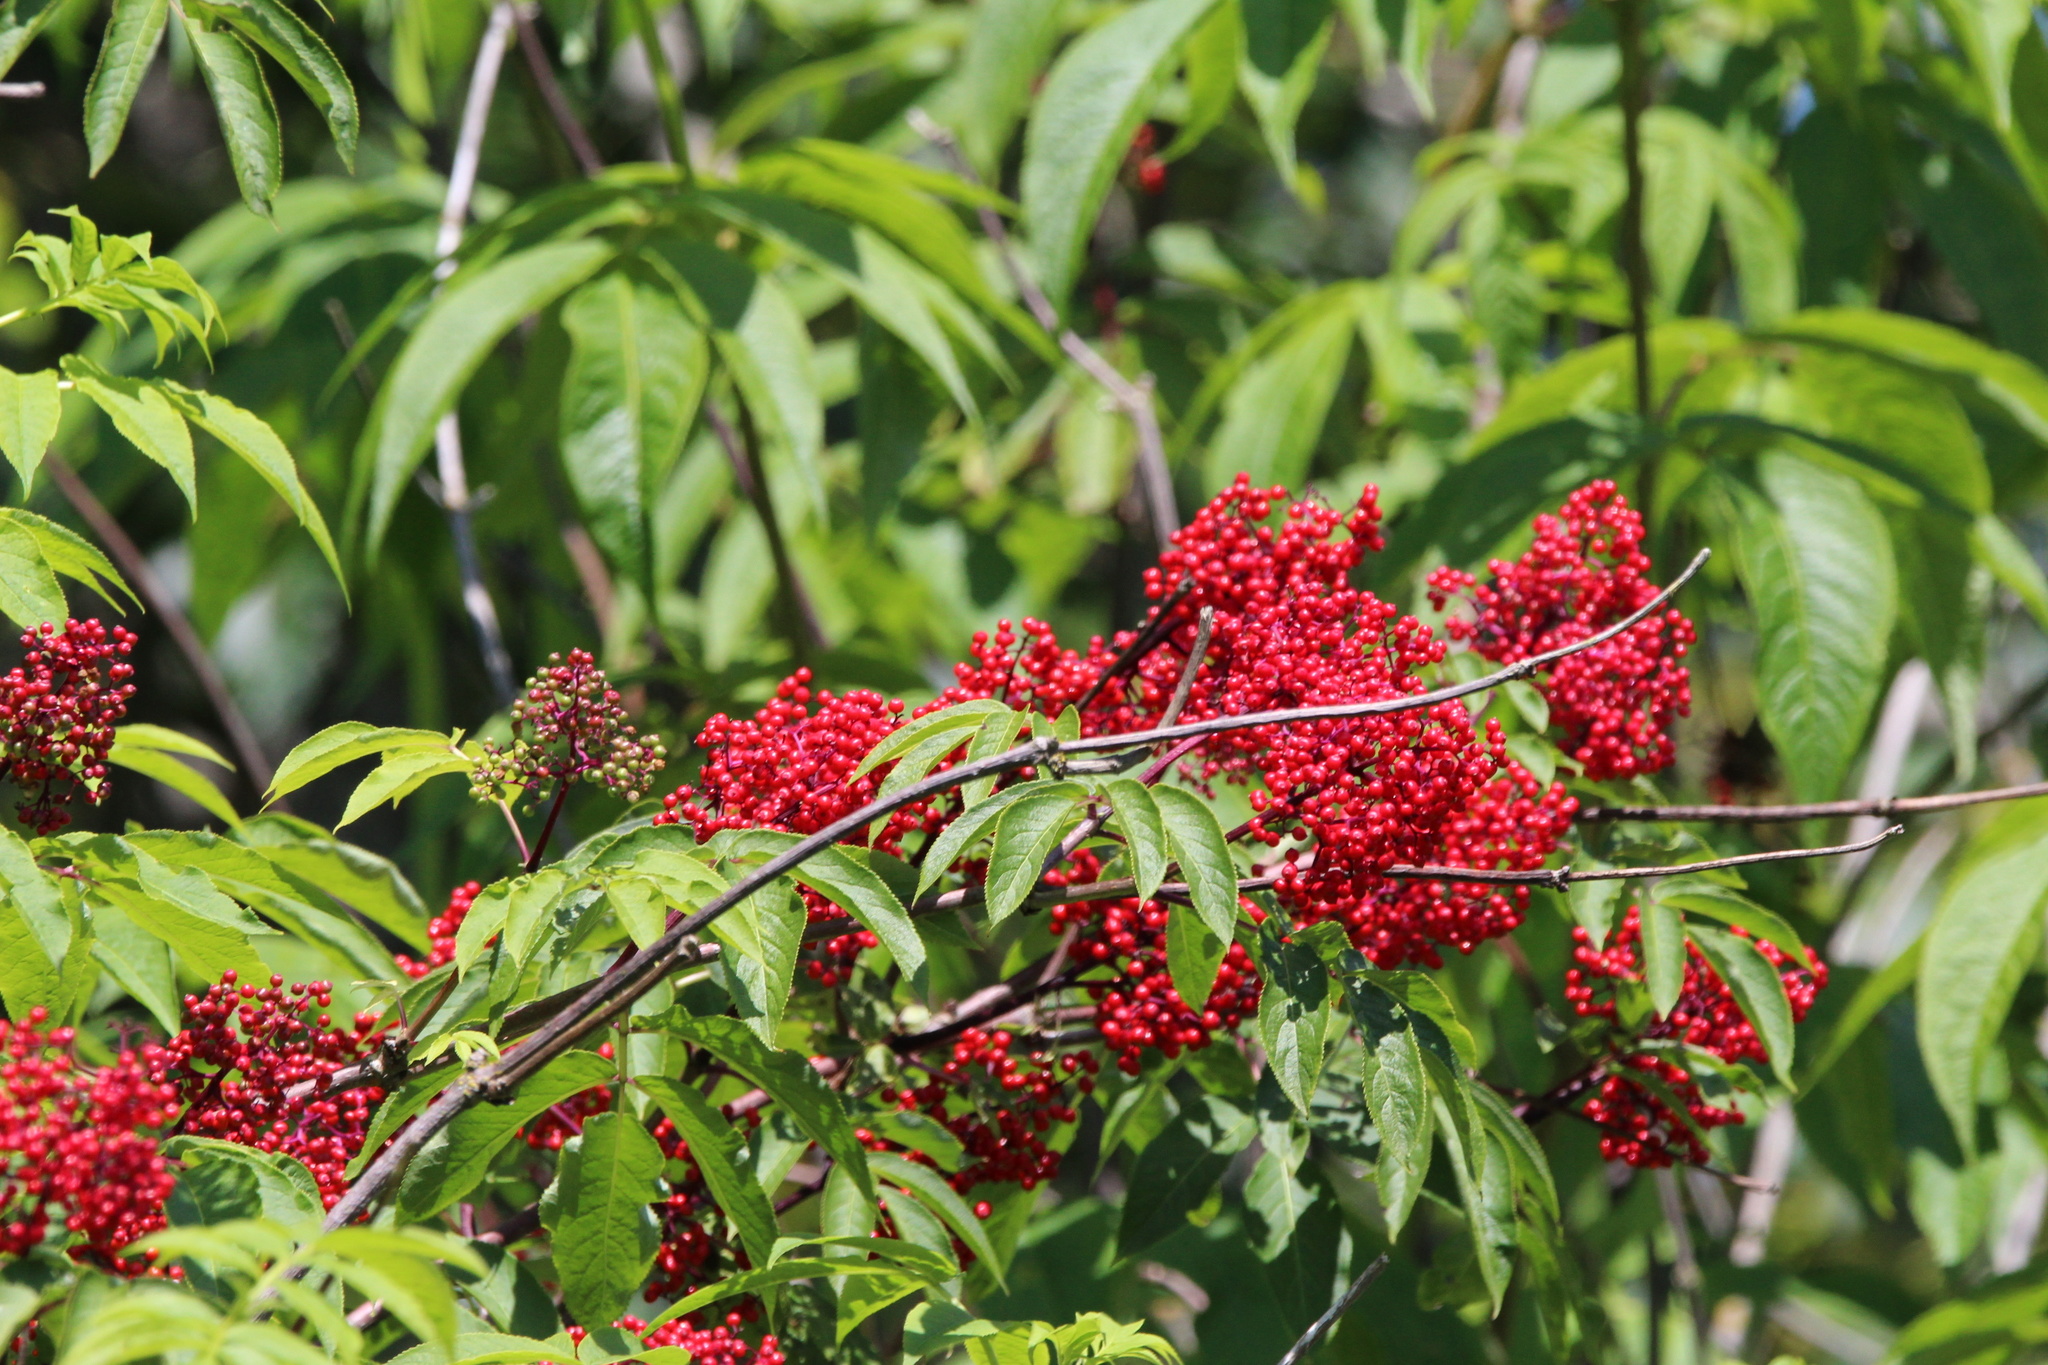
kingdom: Plantae
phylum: Tracheophyta
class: Magnoliopsida
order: Dipsacales
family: Viburnaceae
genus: Sambucus
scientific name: Sambucus racemosa
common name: Red-berried elder
